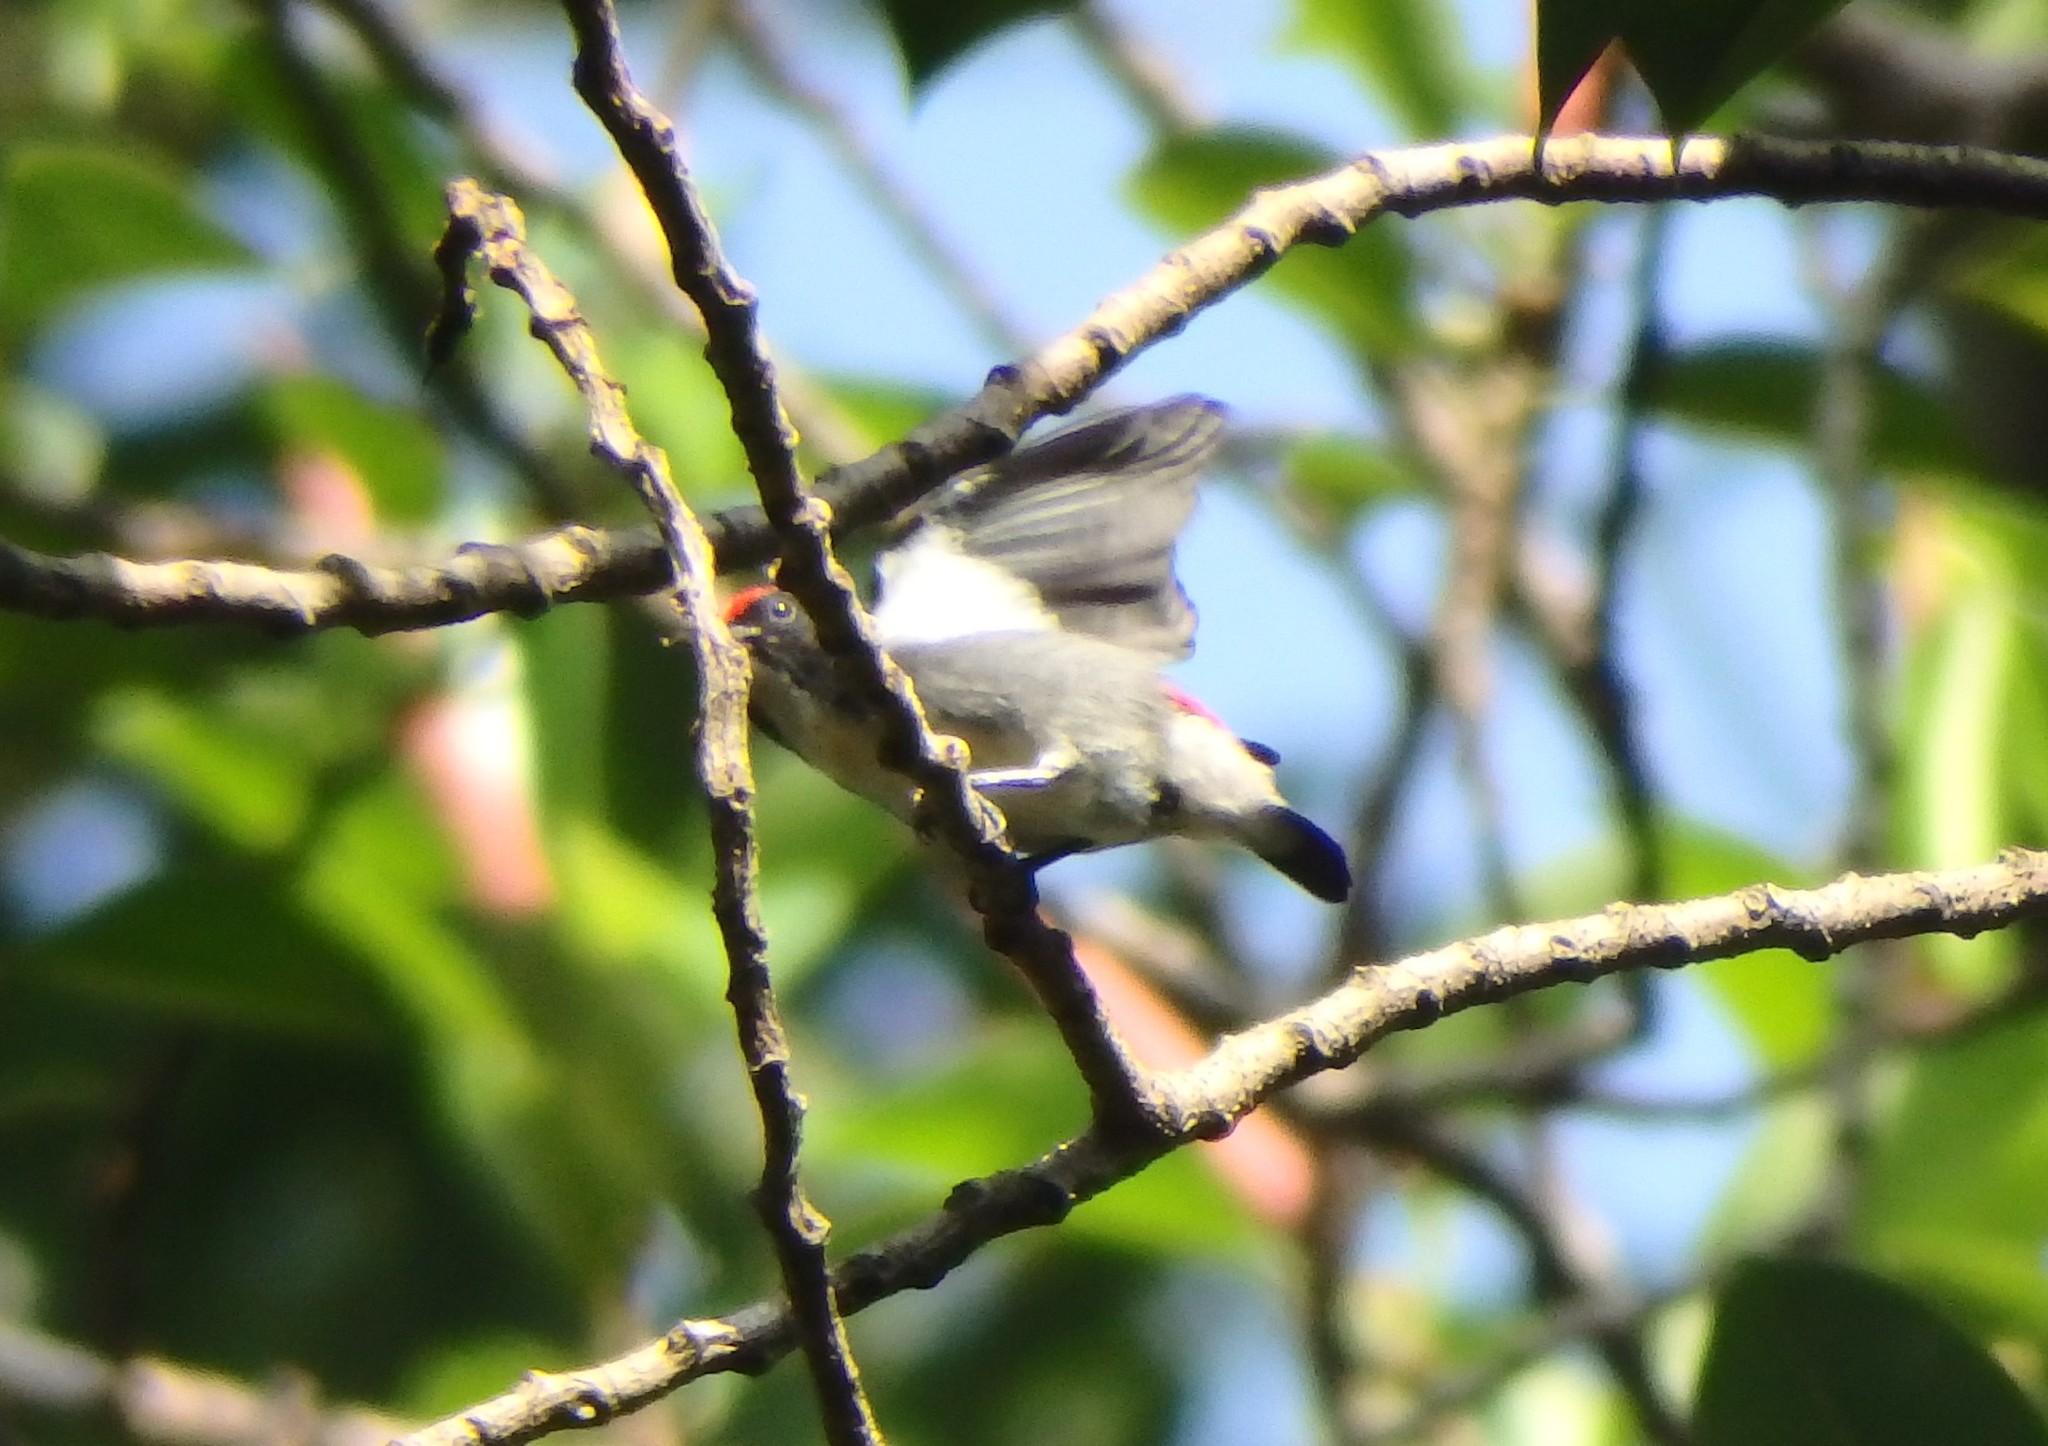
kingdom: Animalia
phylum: Chordata
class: Aves
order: Passeriformes
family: Dicaeidae
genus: Dicaeum
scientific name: Dicaeum cruentatum
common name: Scarlet-backed flowerpecker
